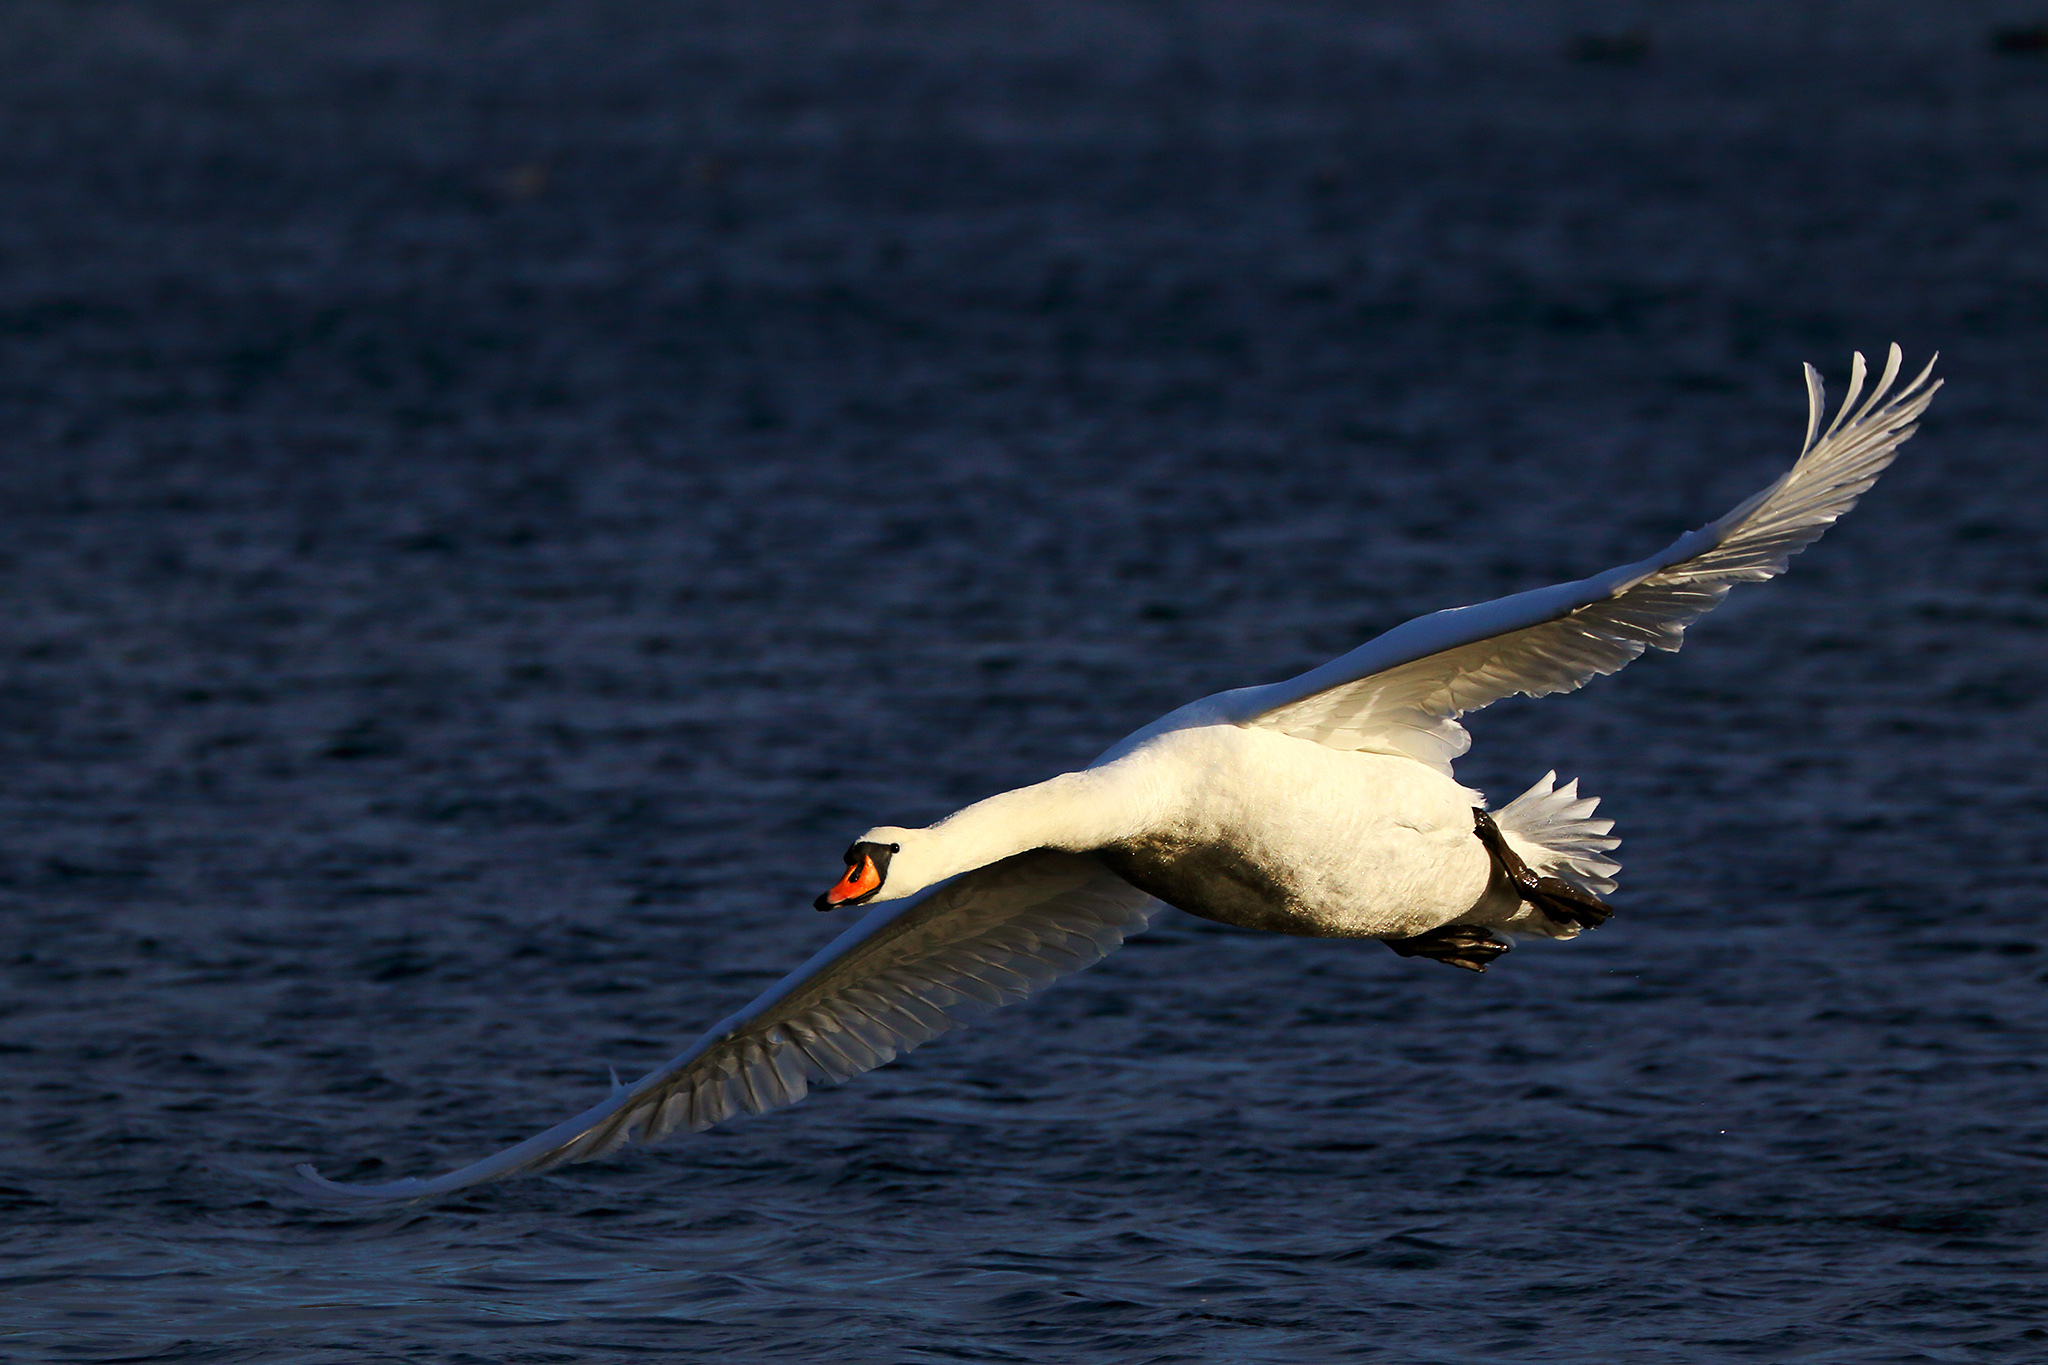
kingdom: Animalia
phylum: Chordata
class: Aves
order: Anseriformes
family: Anatidae
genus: Cygnus
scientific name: Cygnus olor
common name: Mute swan
